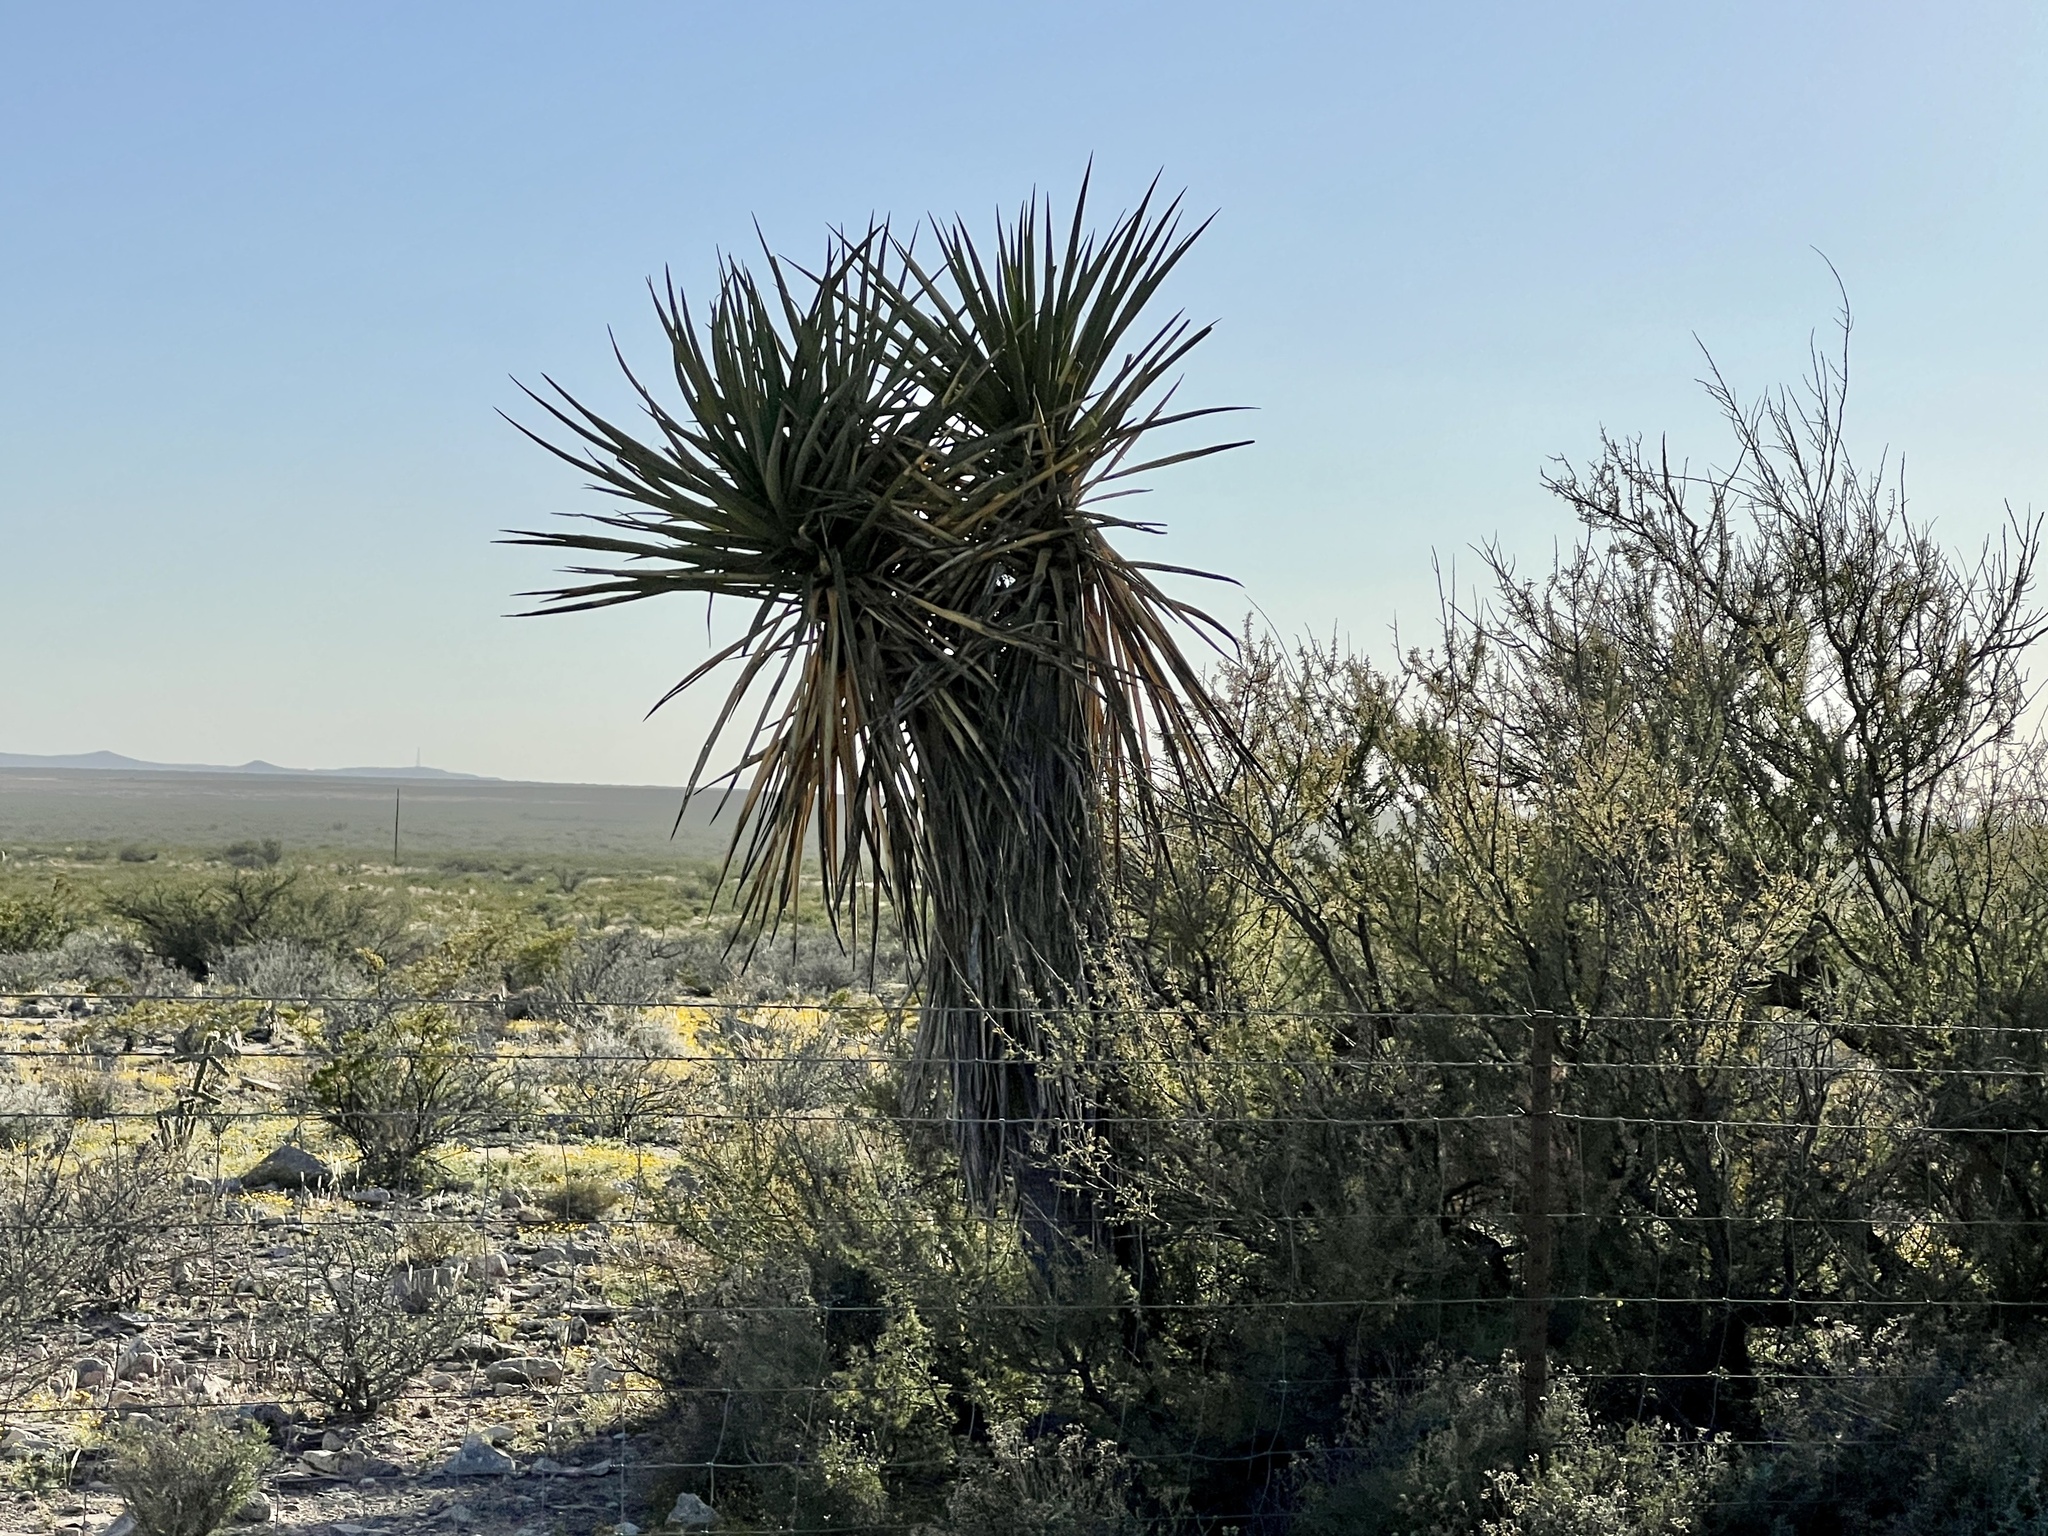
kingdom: Plantae
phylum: Tracheophyta
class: Liliopsida
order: Asparagales
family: Asparagaceae
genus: Yucca
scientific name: Yucca treculiana
